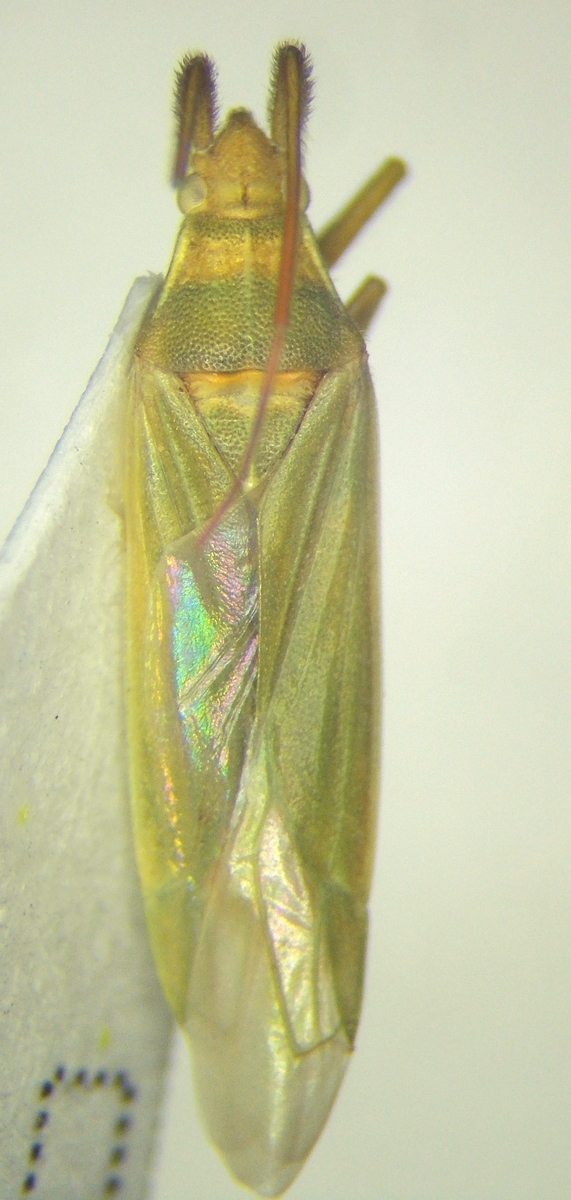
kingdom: Animalia
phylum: Arthropoda
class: Insecta
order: Hemiptera
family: Miridae
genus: Stenodema
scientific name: Stenodema calcarata
